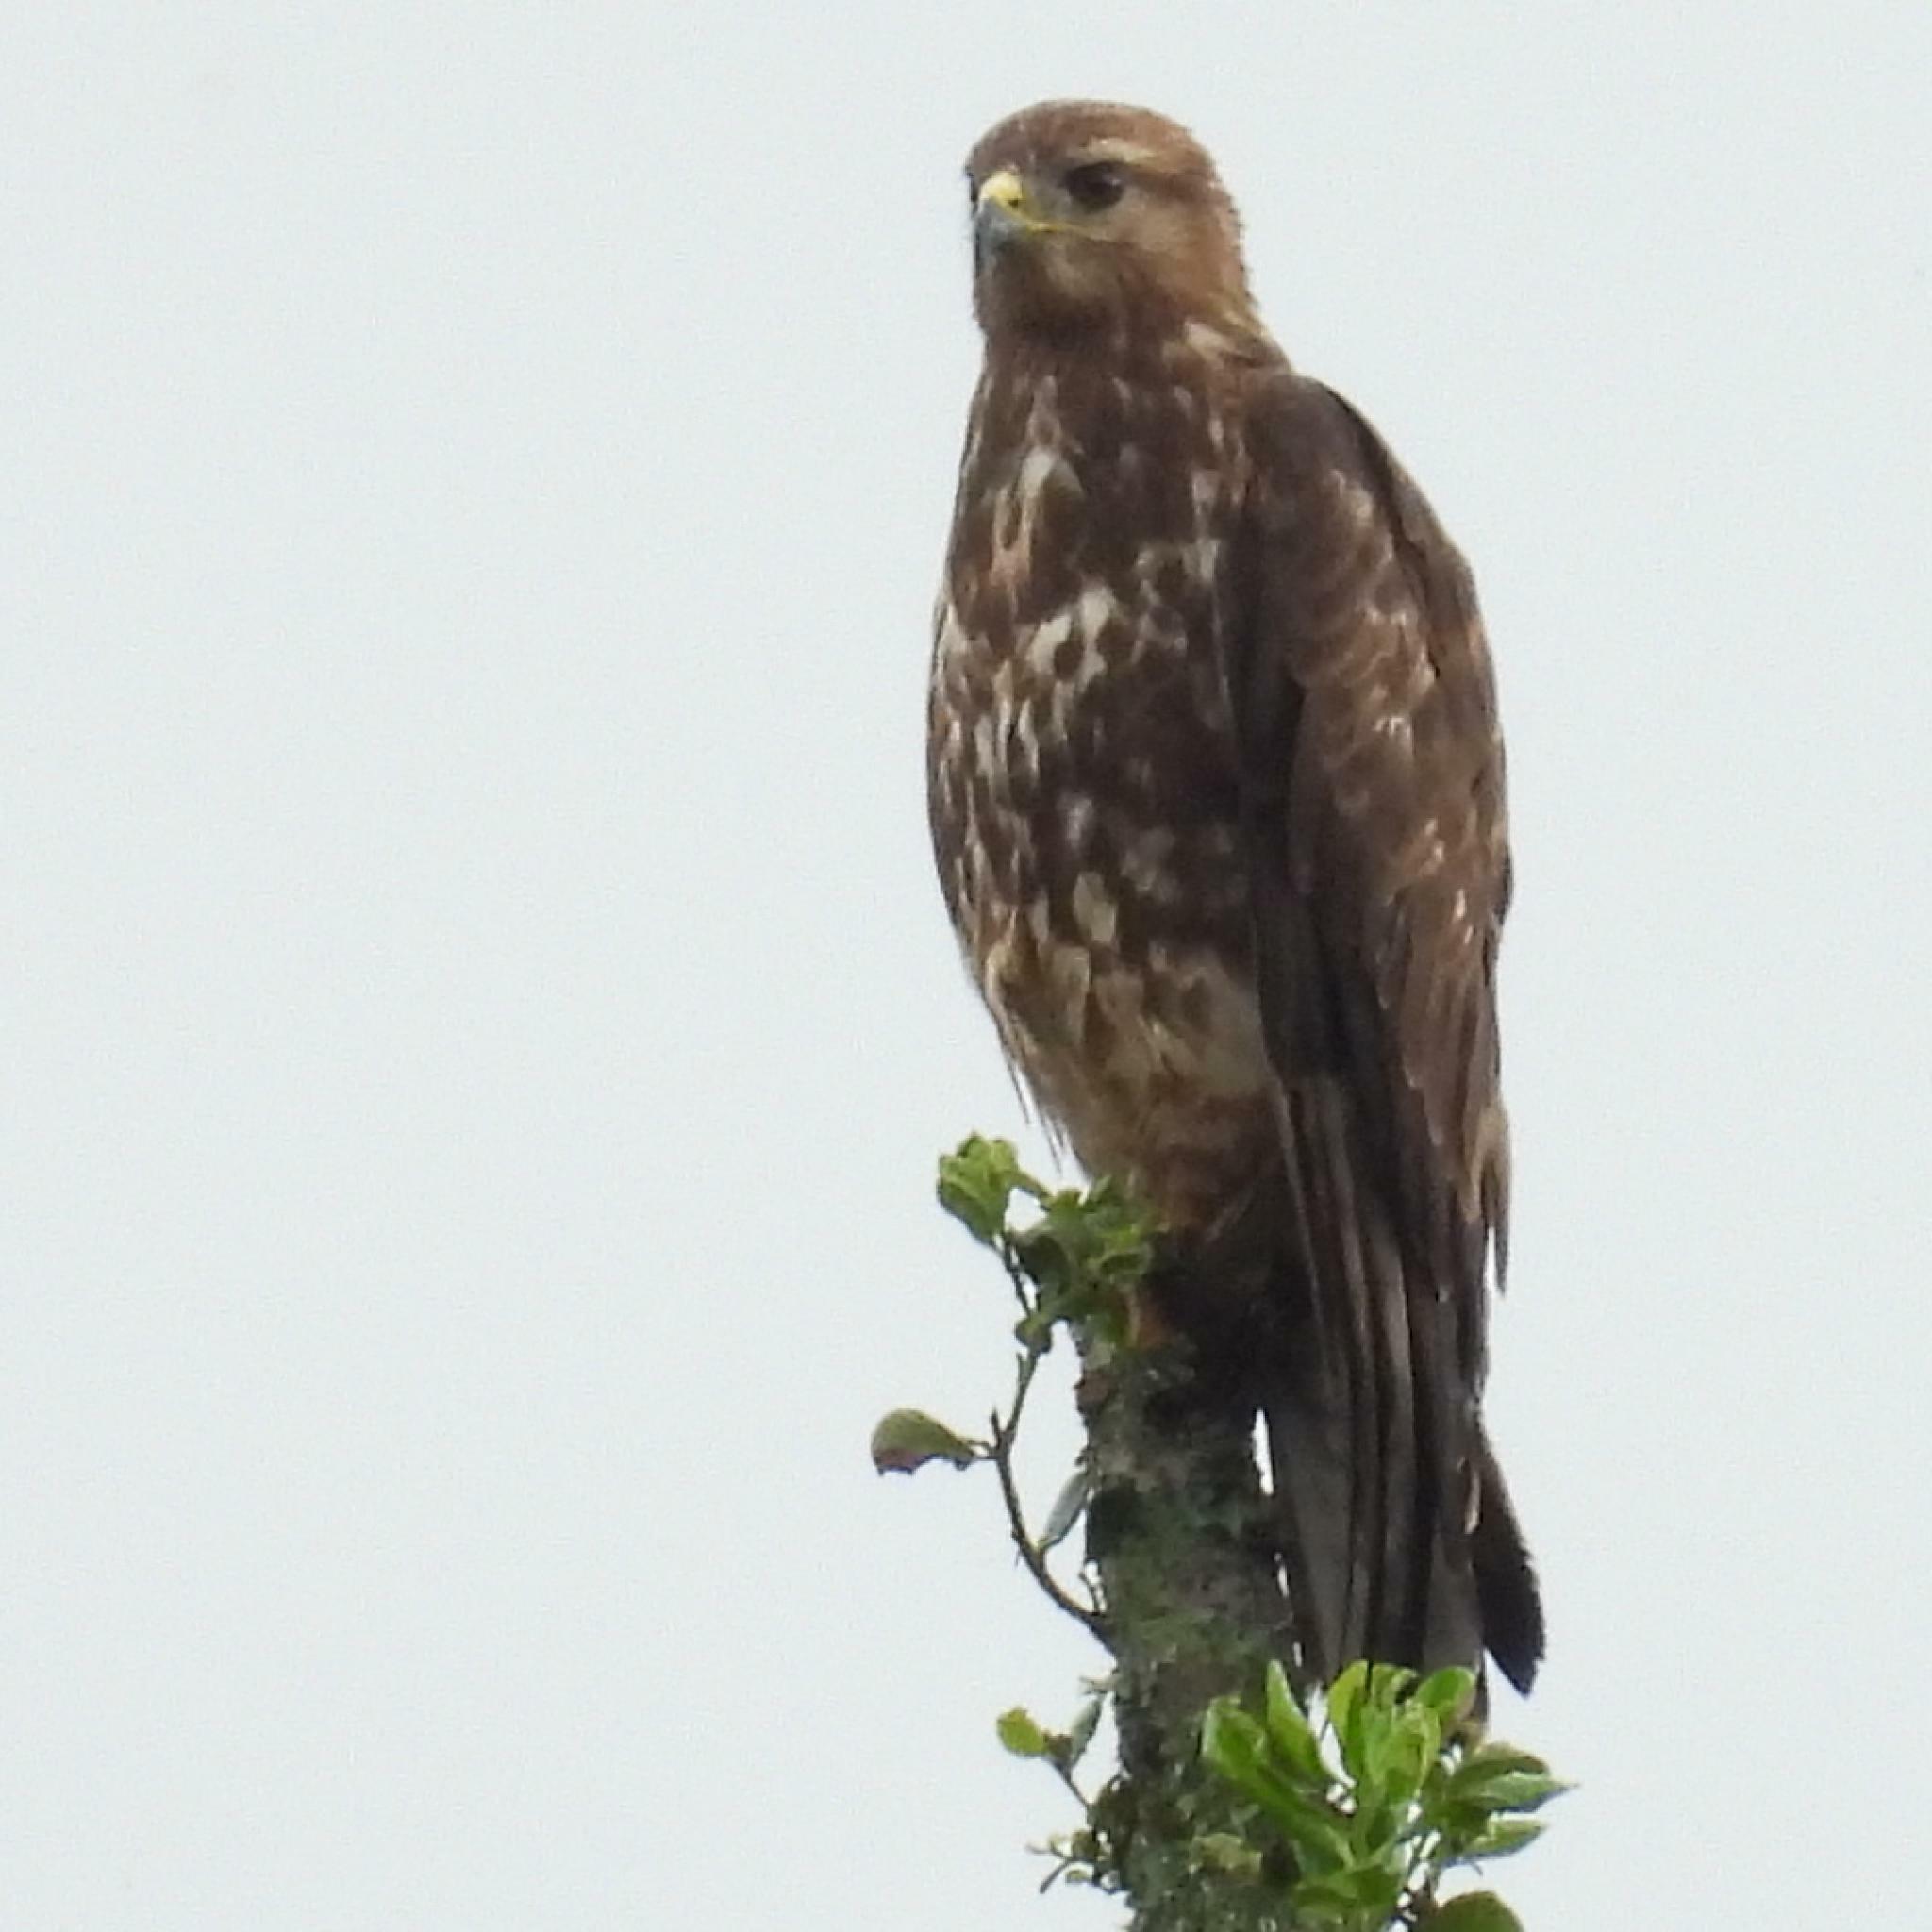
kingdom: Animalia
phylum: Chordata
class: Aves
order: Accipitriformes
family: Accipitridae
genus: Buteo
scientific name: Buteo buteo
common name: Common buzzard
